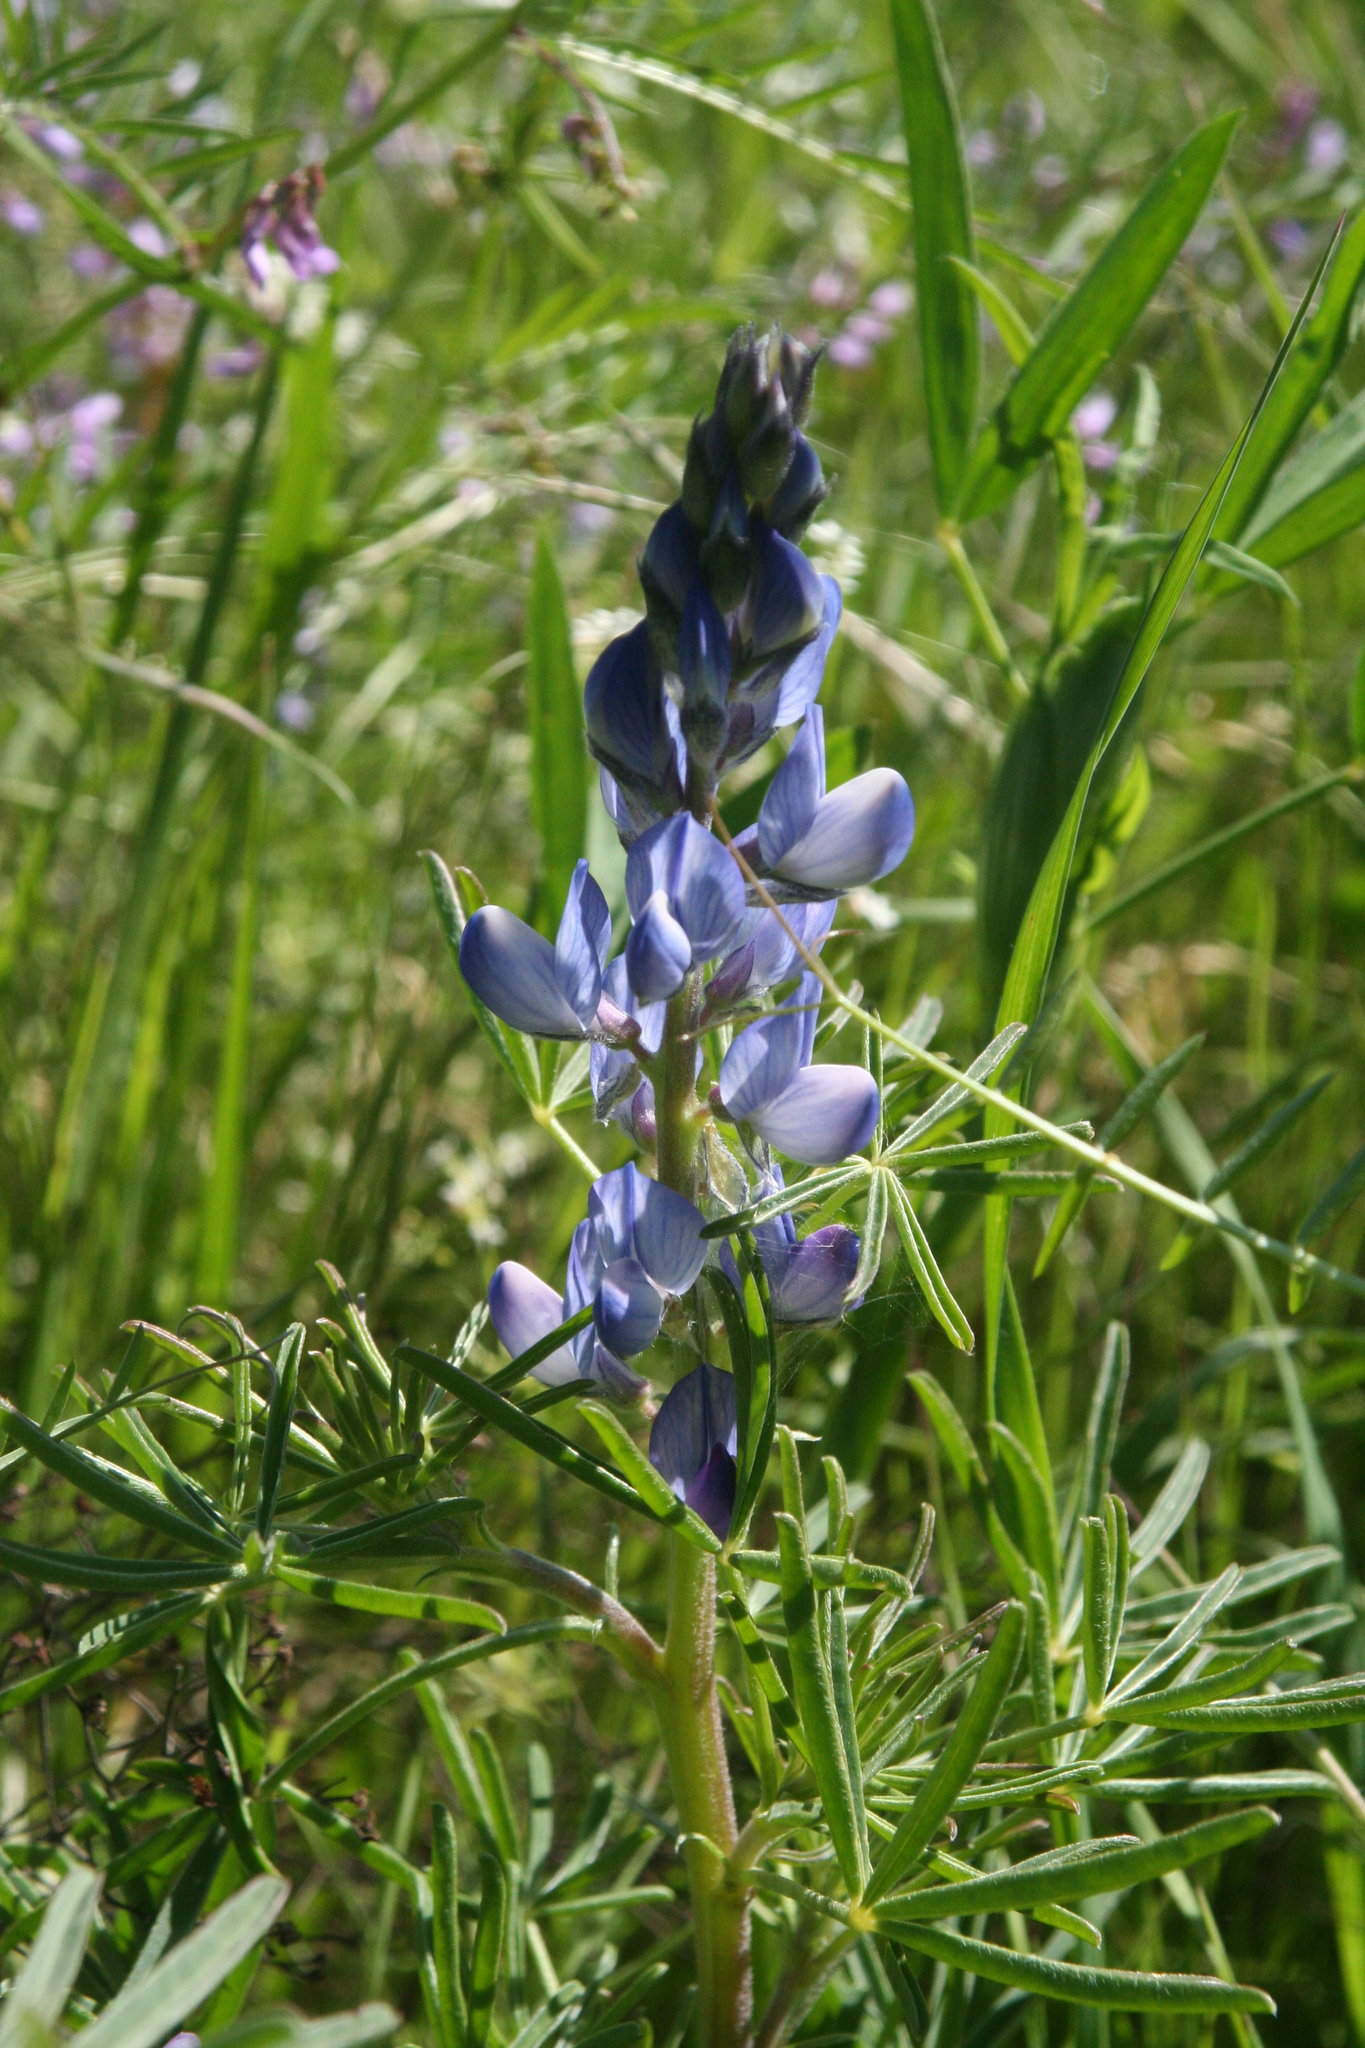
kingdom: Plantae
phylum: Tracheophyta
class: Magnoliopsida
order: Fabales
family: Fabaceae
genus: Lupinus
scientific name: Lupinus angustifolius
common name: Narrow-leaved lupin
